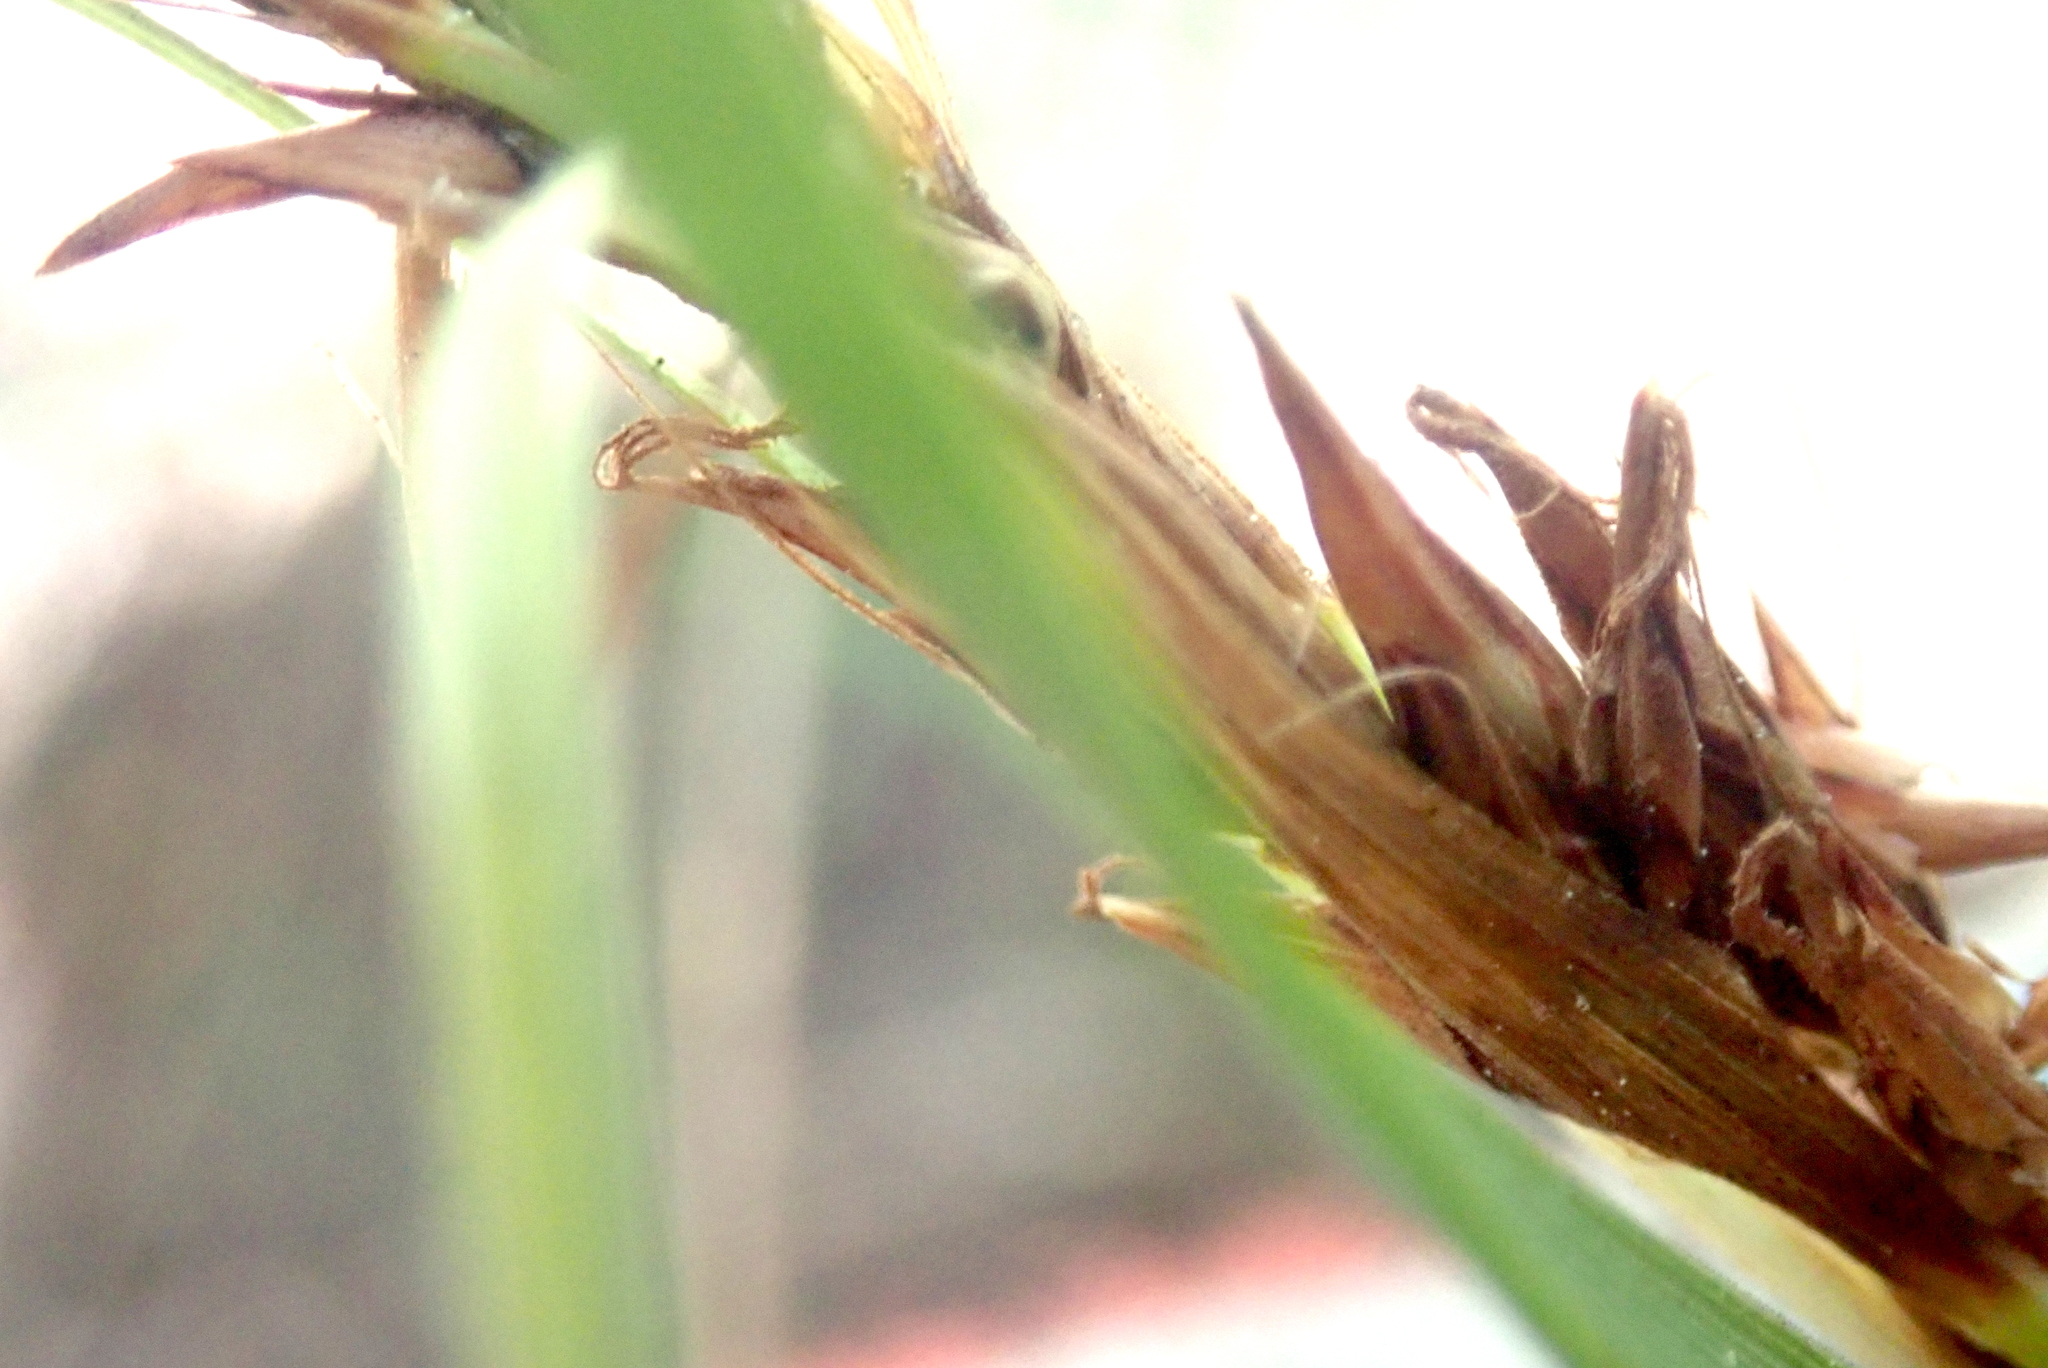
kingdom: Plantae
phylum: Tracheophyta
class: Liliopsida
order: Poales
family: Cyperaceae
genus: Gahnia
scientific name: Gahnia lacera
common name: Sawsedge
